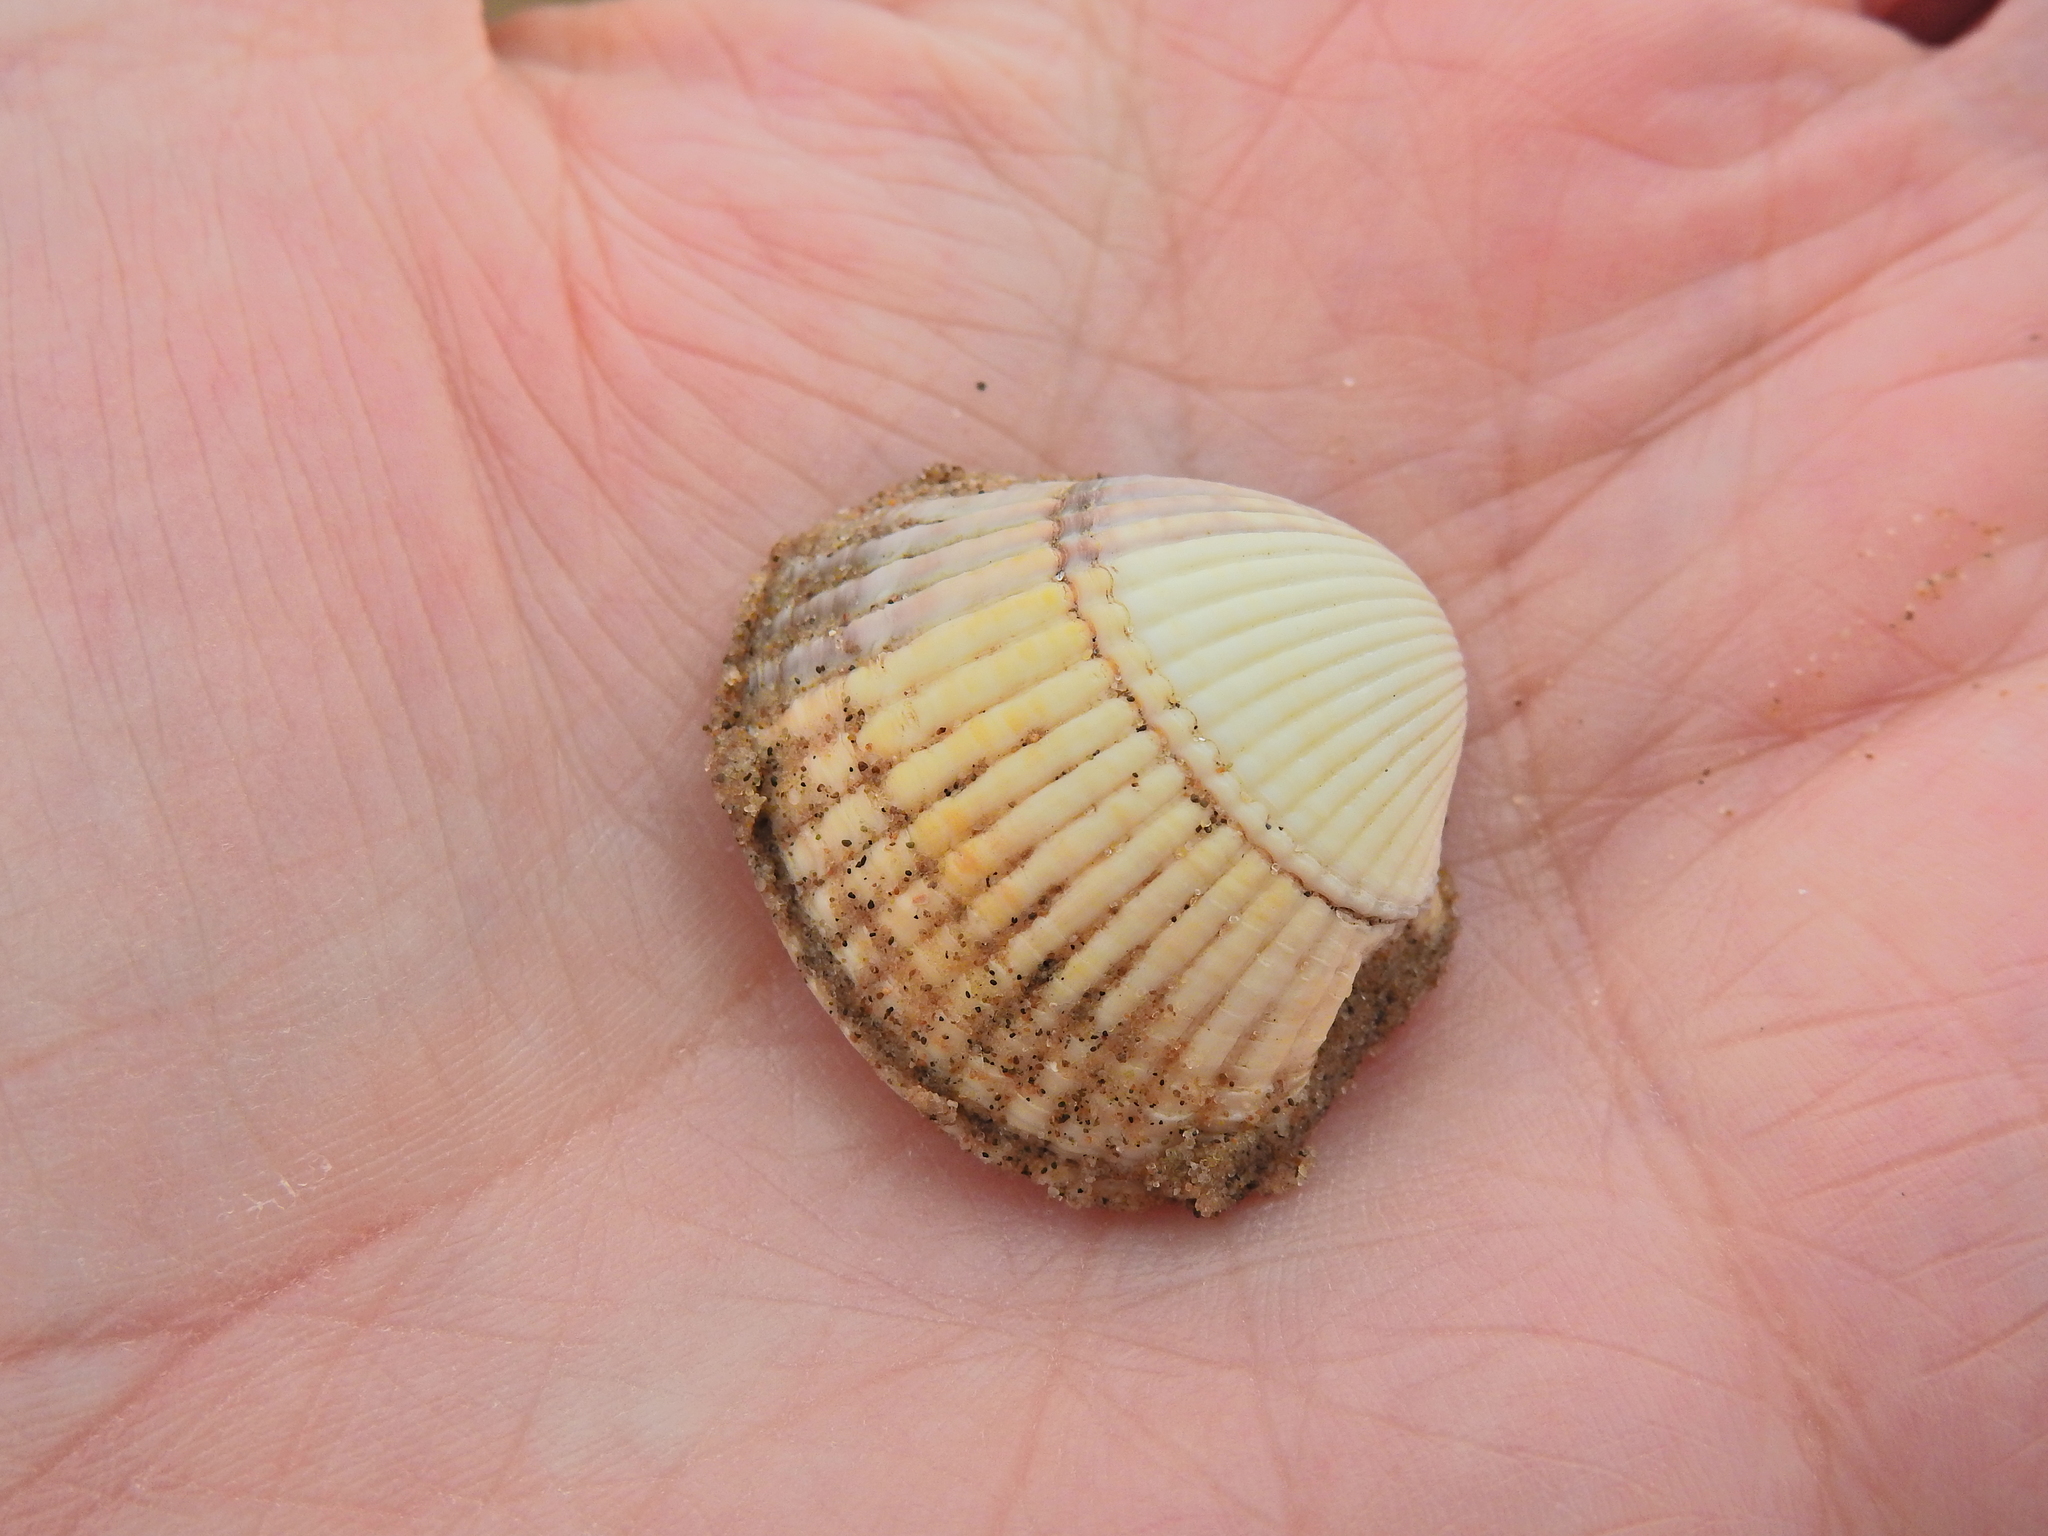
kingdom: Animalia
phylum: Mollusca
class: Bivalvia
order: Cardiida
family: Cardiidae
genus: Cerastoderma
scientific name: Cerastoderma edule
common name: Common cockle
